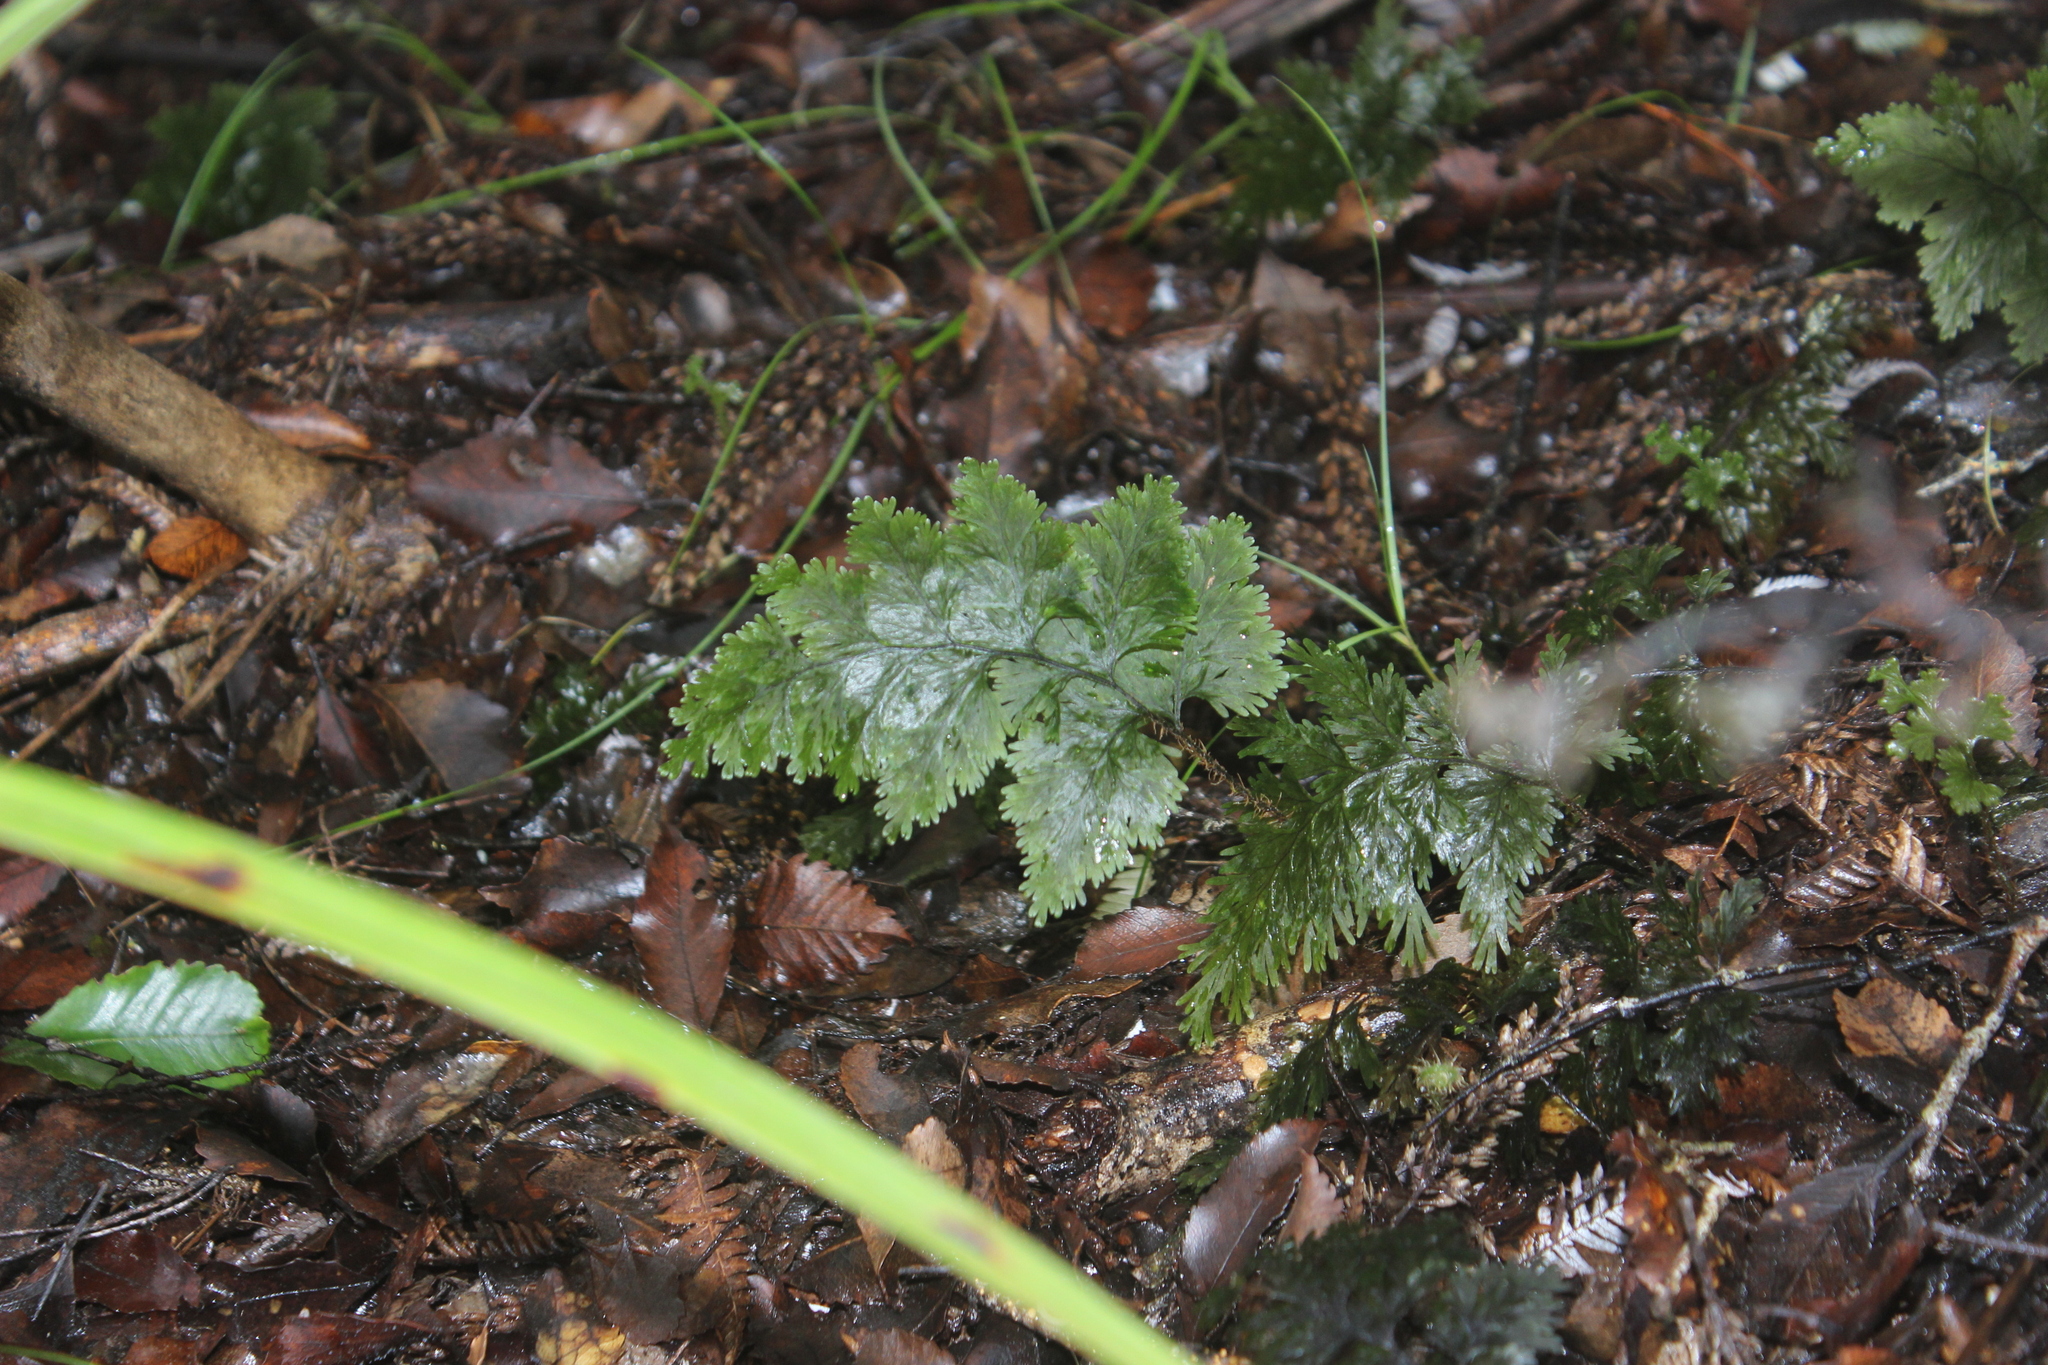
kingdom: Plantae
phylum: Tracheophyta
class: Polypodiopsida
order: Hymenophyllales
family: Hymenophyllaceae
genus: Hymenophyllum
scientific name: Hymenophyllum scabrum
